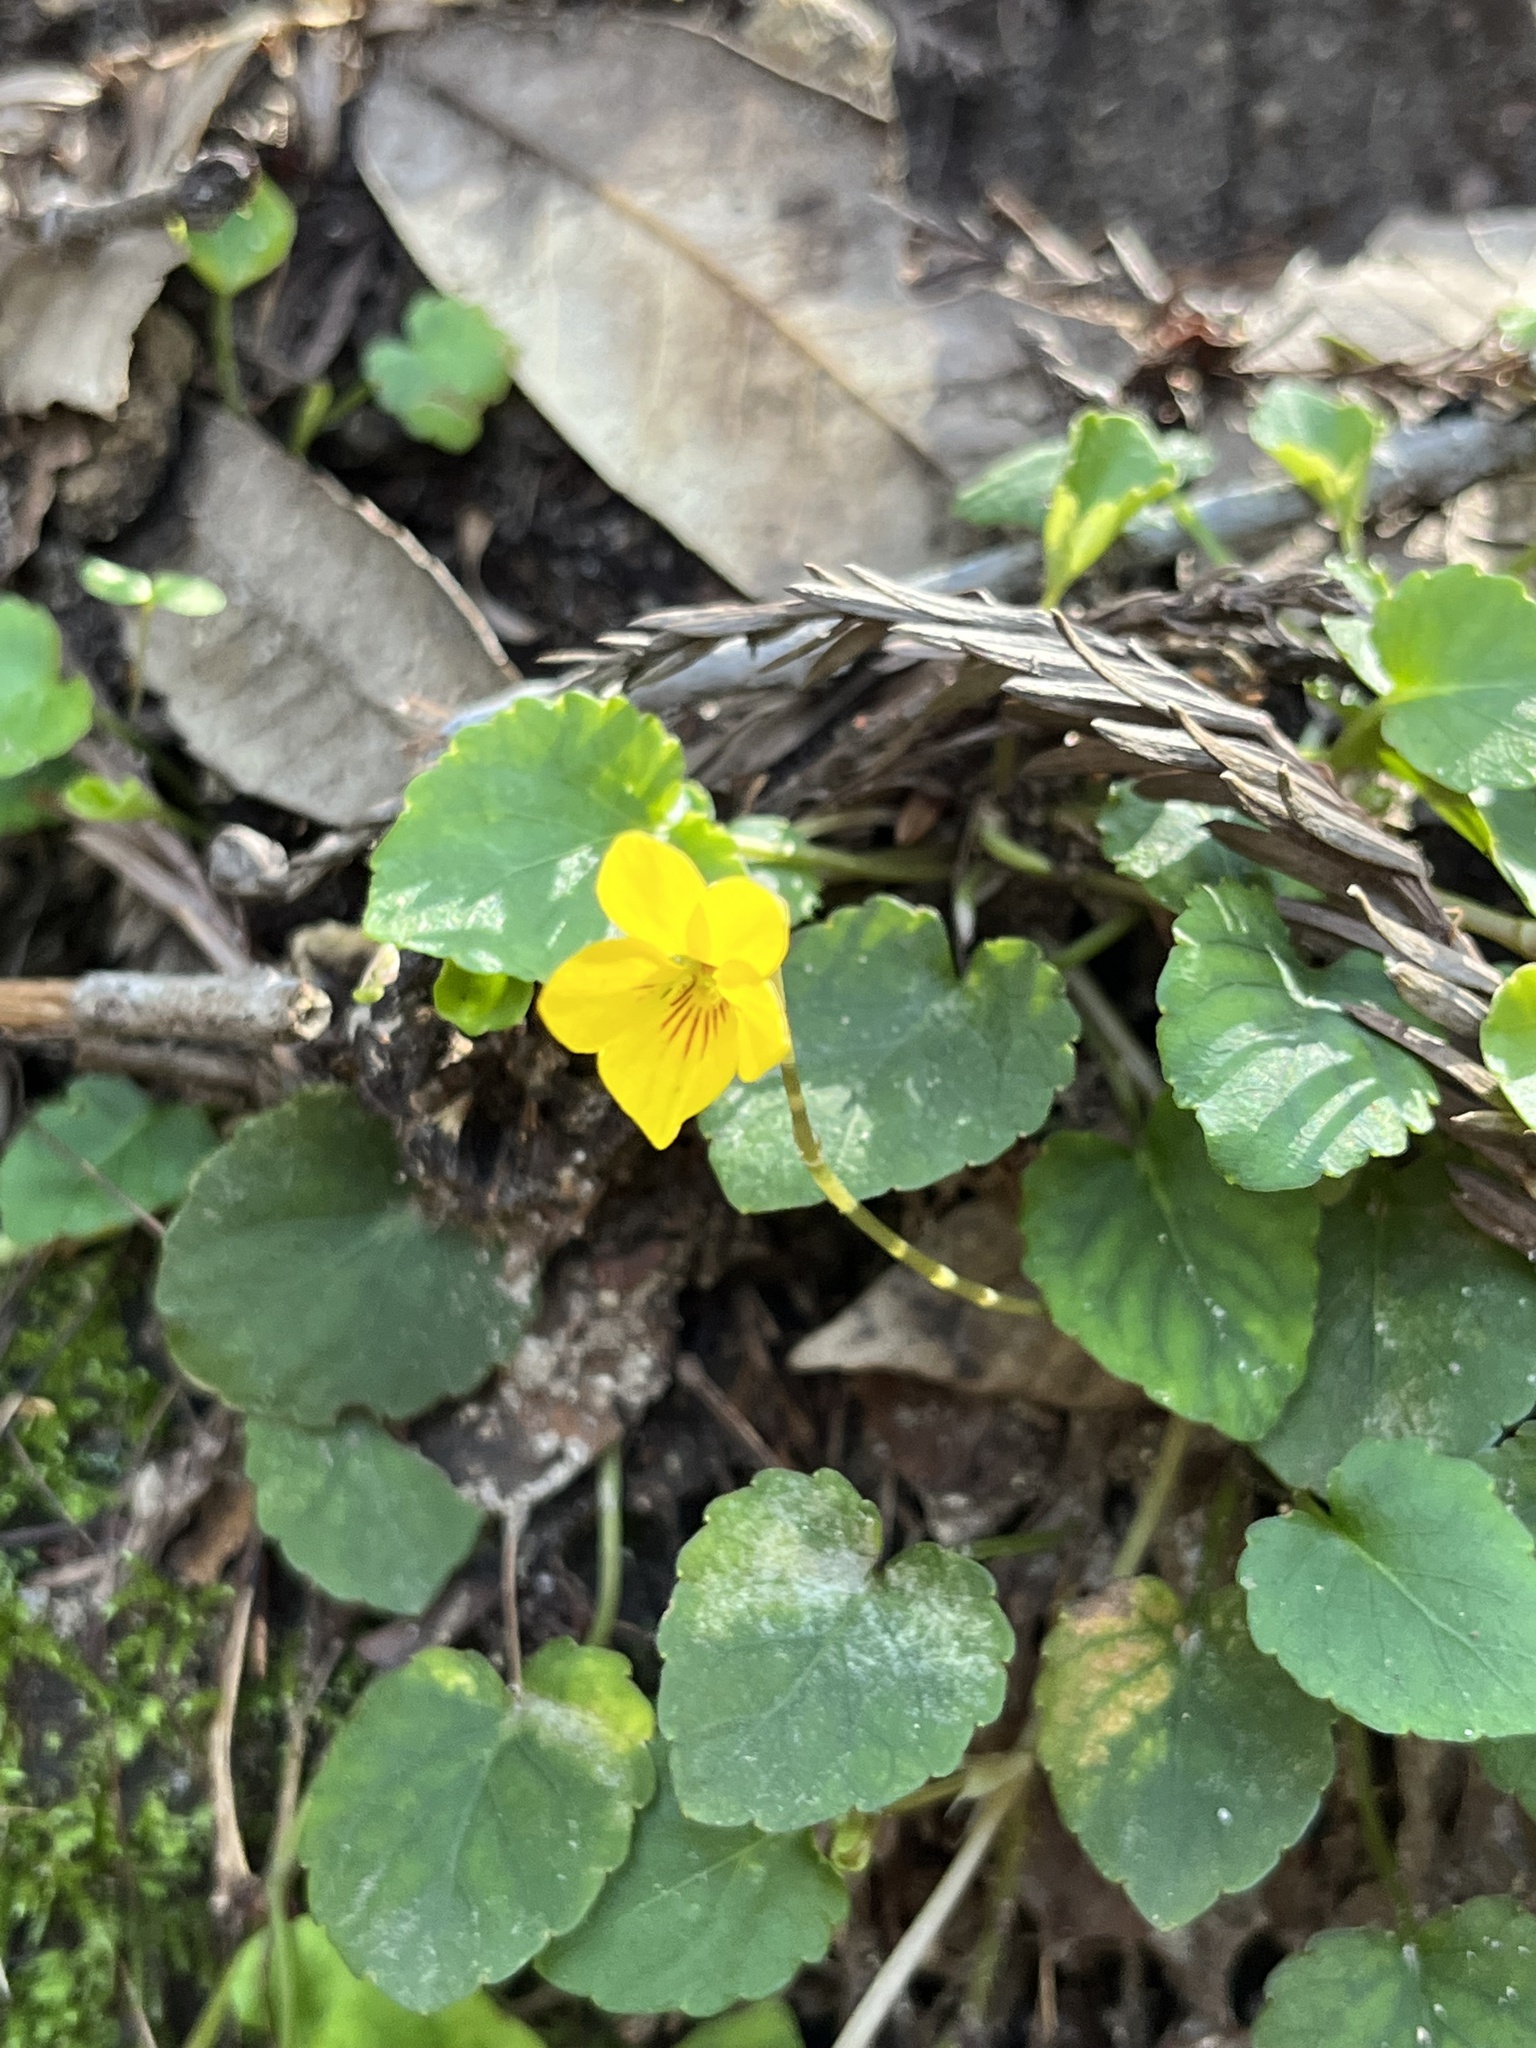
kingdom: Plantae
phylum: Tracheophyta
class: Magnoliopsida
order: Malpighiales
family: Violaceae
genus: Viola
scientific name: Viola sempervirens
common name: Evergreen violet
